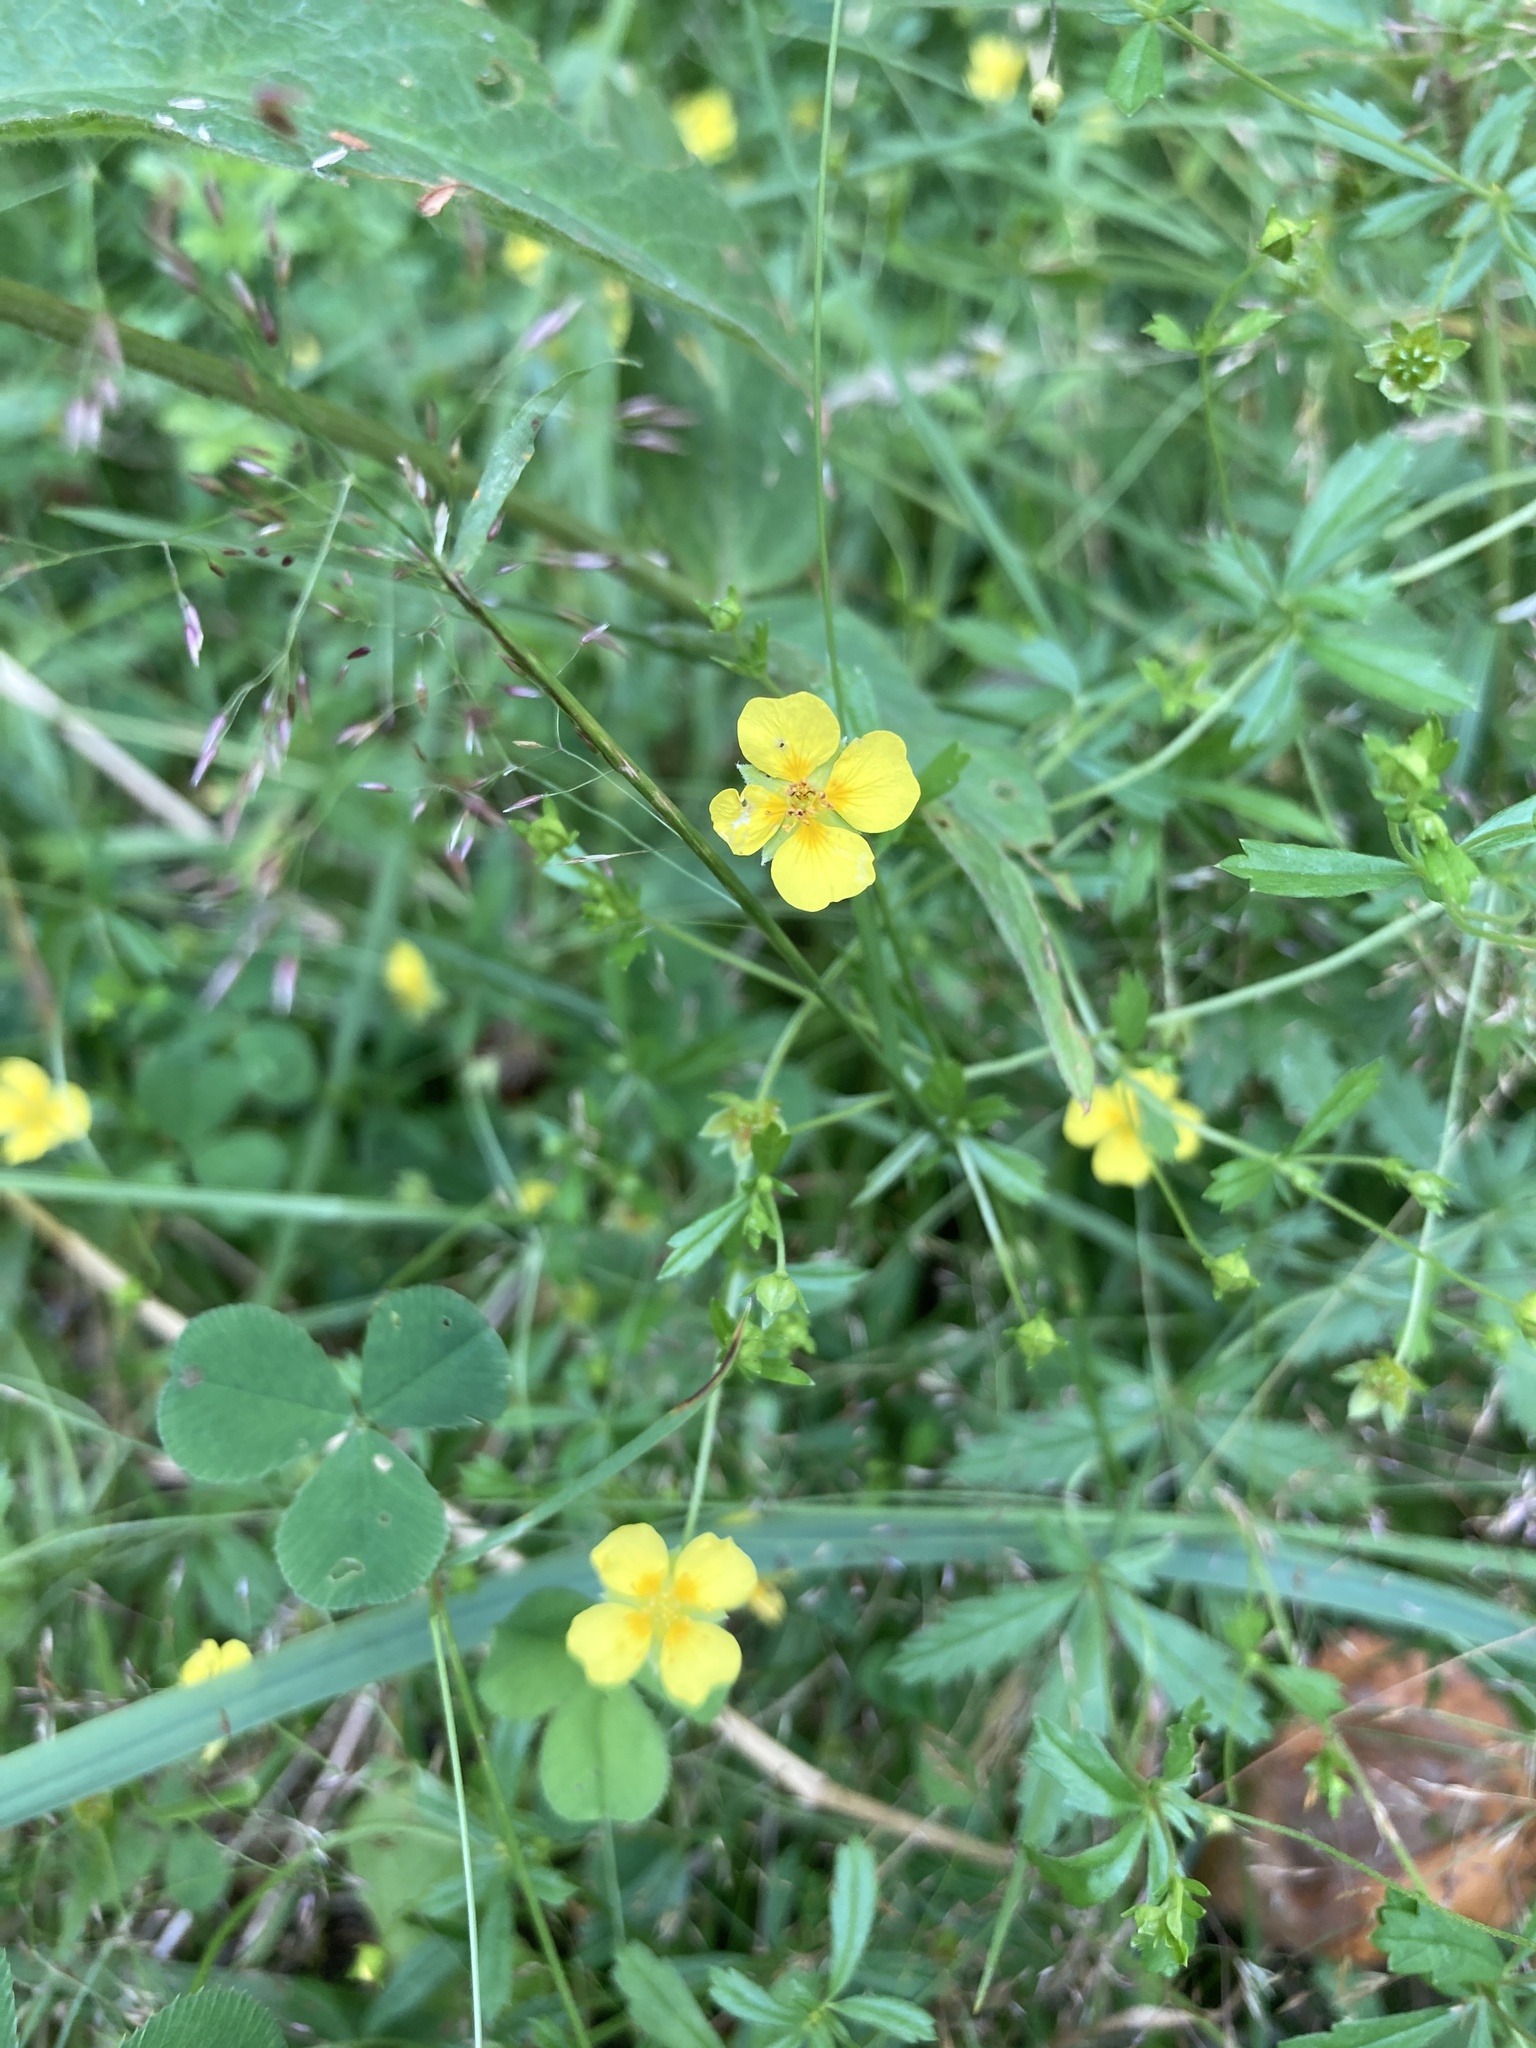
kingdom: Plantae
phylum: Tracheophyta
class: Magnoliopsida
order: Rosales
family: Rosaceae
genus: Potentilla
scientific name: Potentilla erecta
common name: Tormentil
